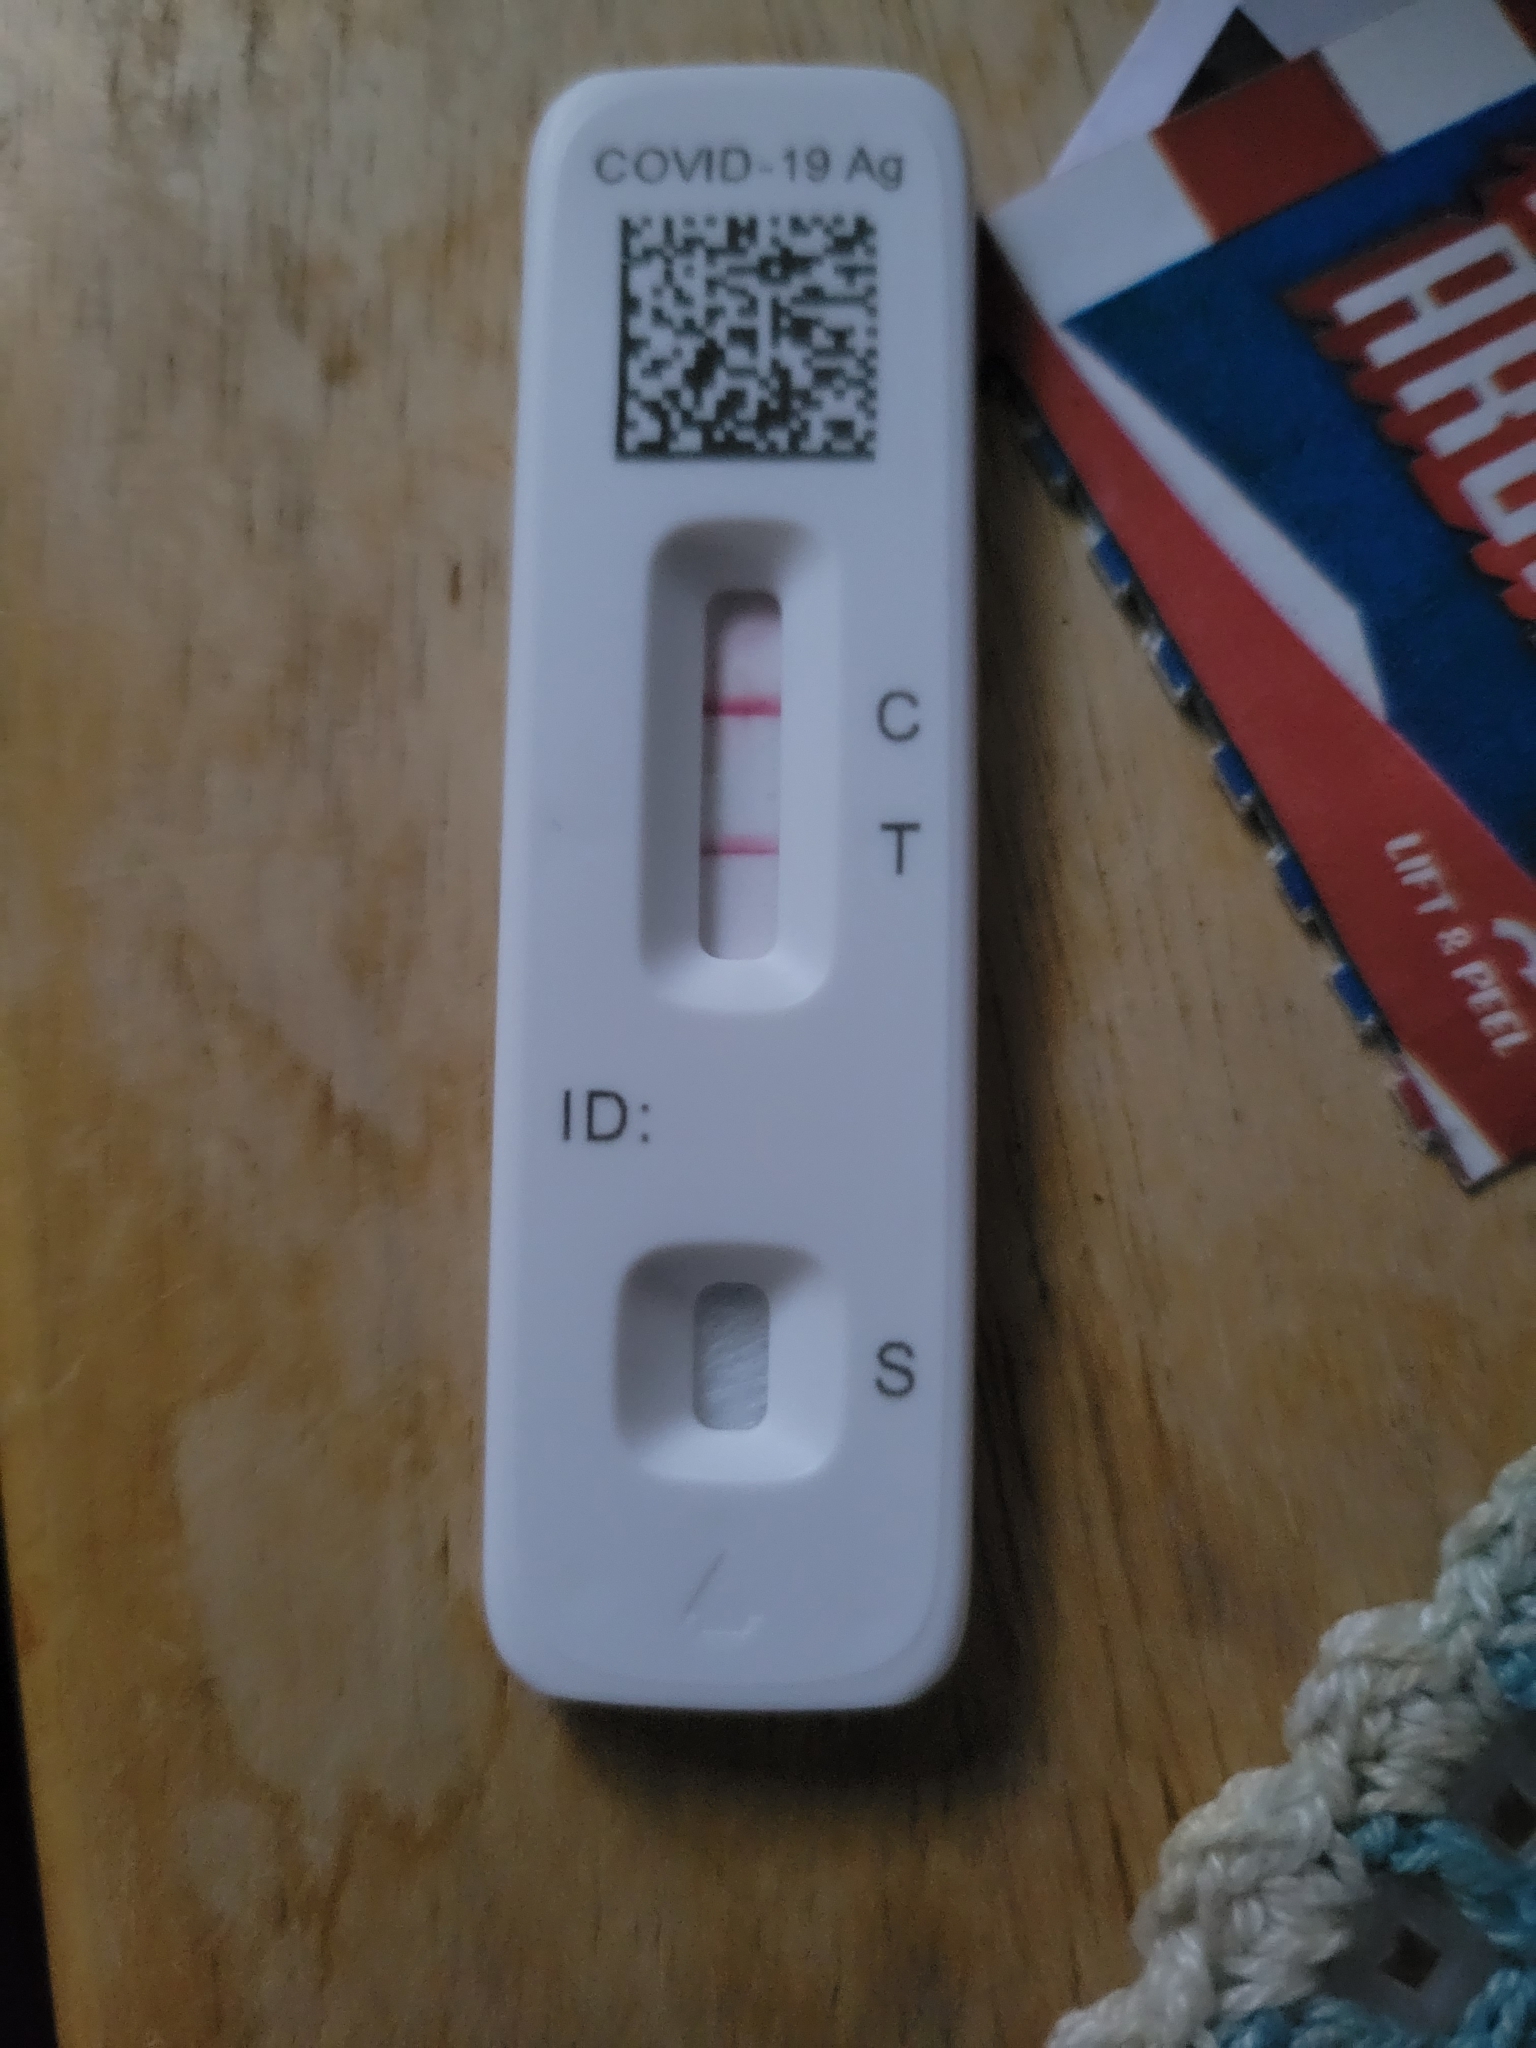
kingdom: Viruses
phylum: Pisuviricota
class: Pisoniviricetes
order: Nidovirales
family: Coronaviridae
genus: Betacoronavirus
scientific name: Betacoronavirus
